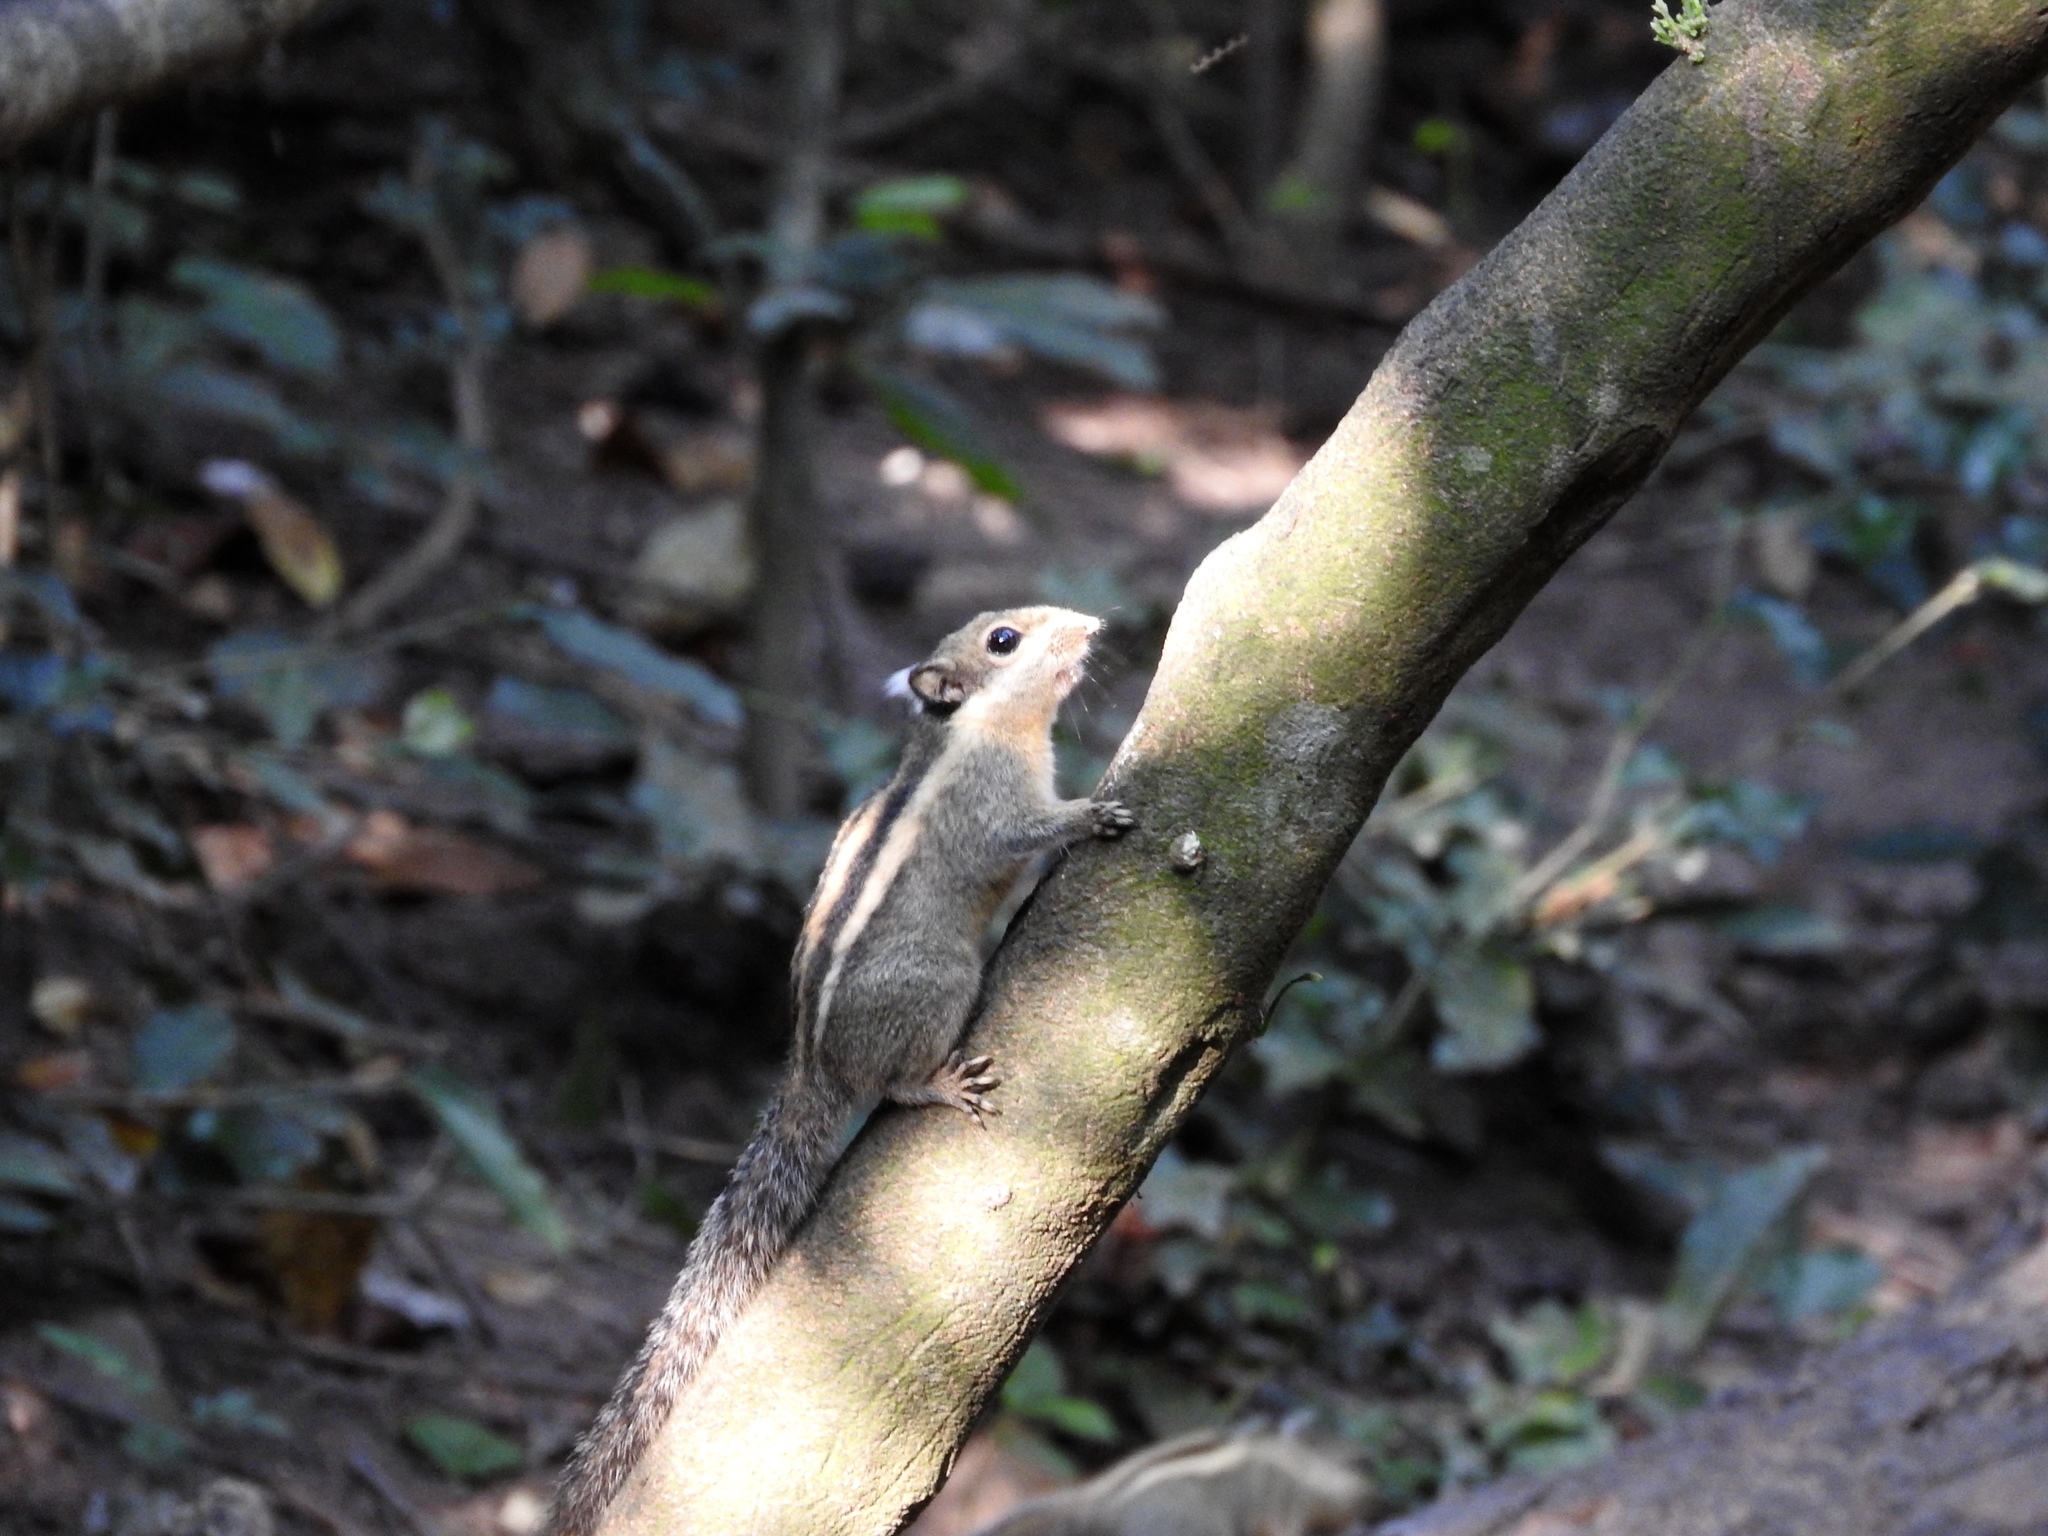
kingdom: Animalia
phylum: Chordata
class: Mammalia
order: Rodentia
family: Sciuridae
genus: Tamiops
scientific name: Tamiops mcclellandii
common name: Himalayan striped squirrel
